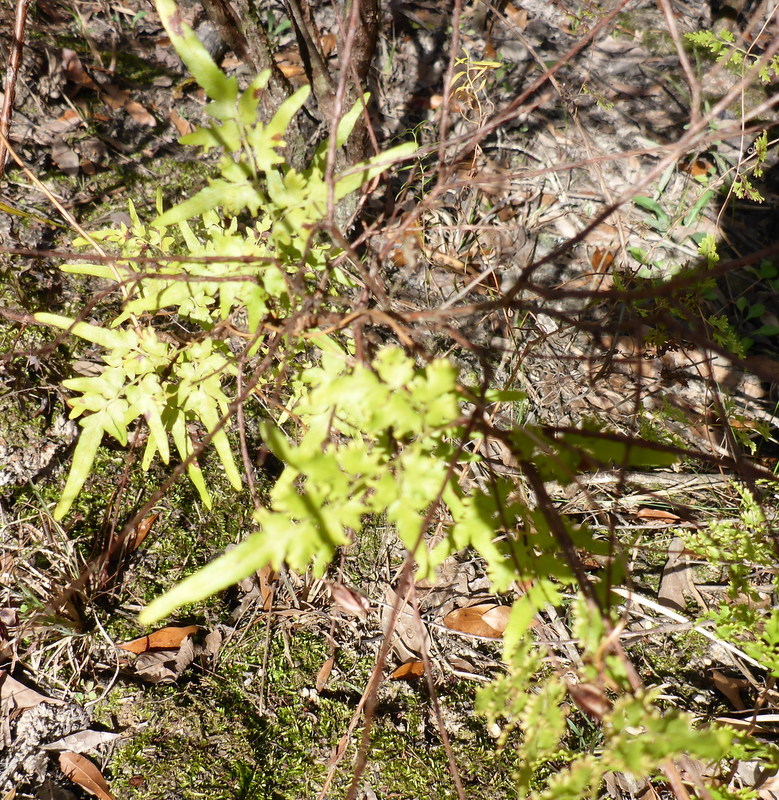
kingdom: Plantae
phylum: Tracheophyta
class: Polypodiopsida
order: Schizaeales
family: Lygodiaceae
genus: Lygodium
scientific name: Lygodium japonicum
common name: Japanese climbing fern
